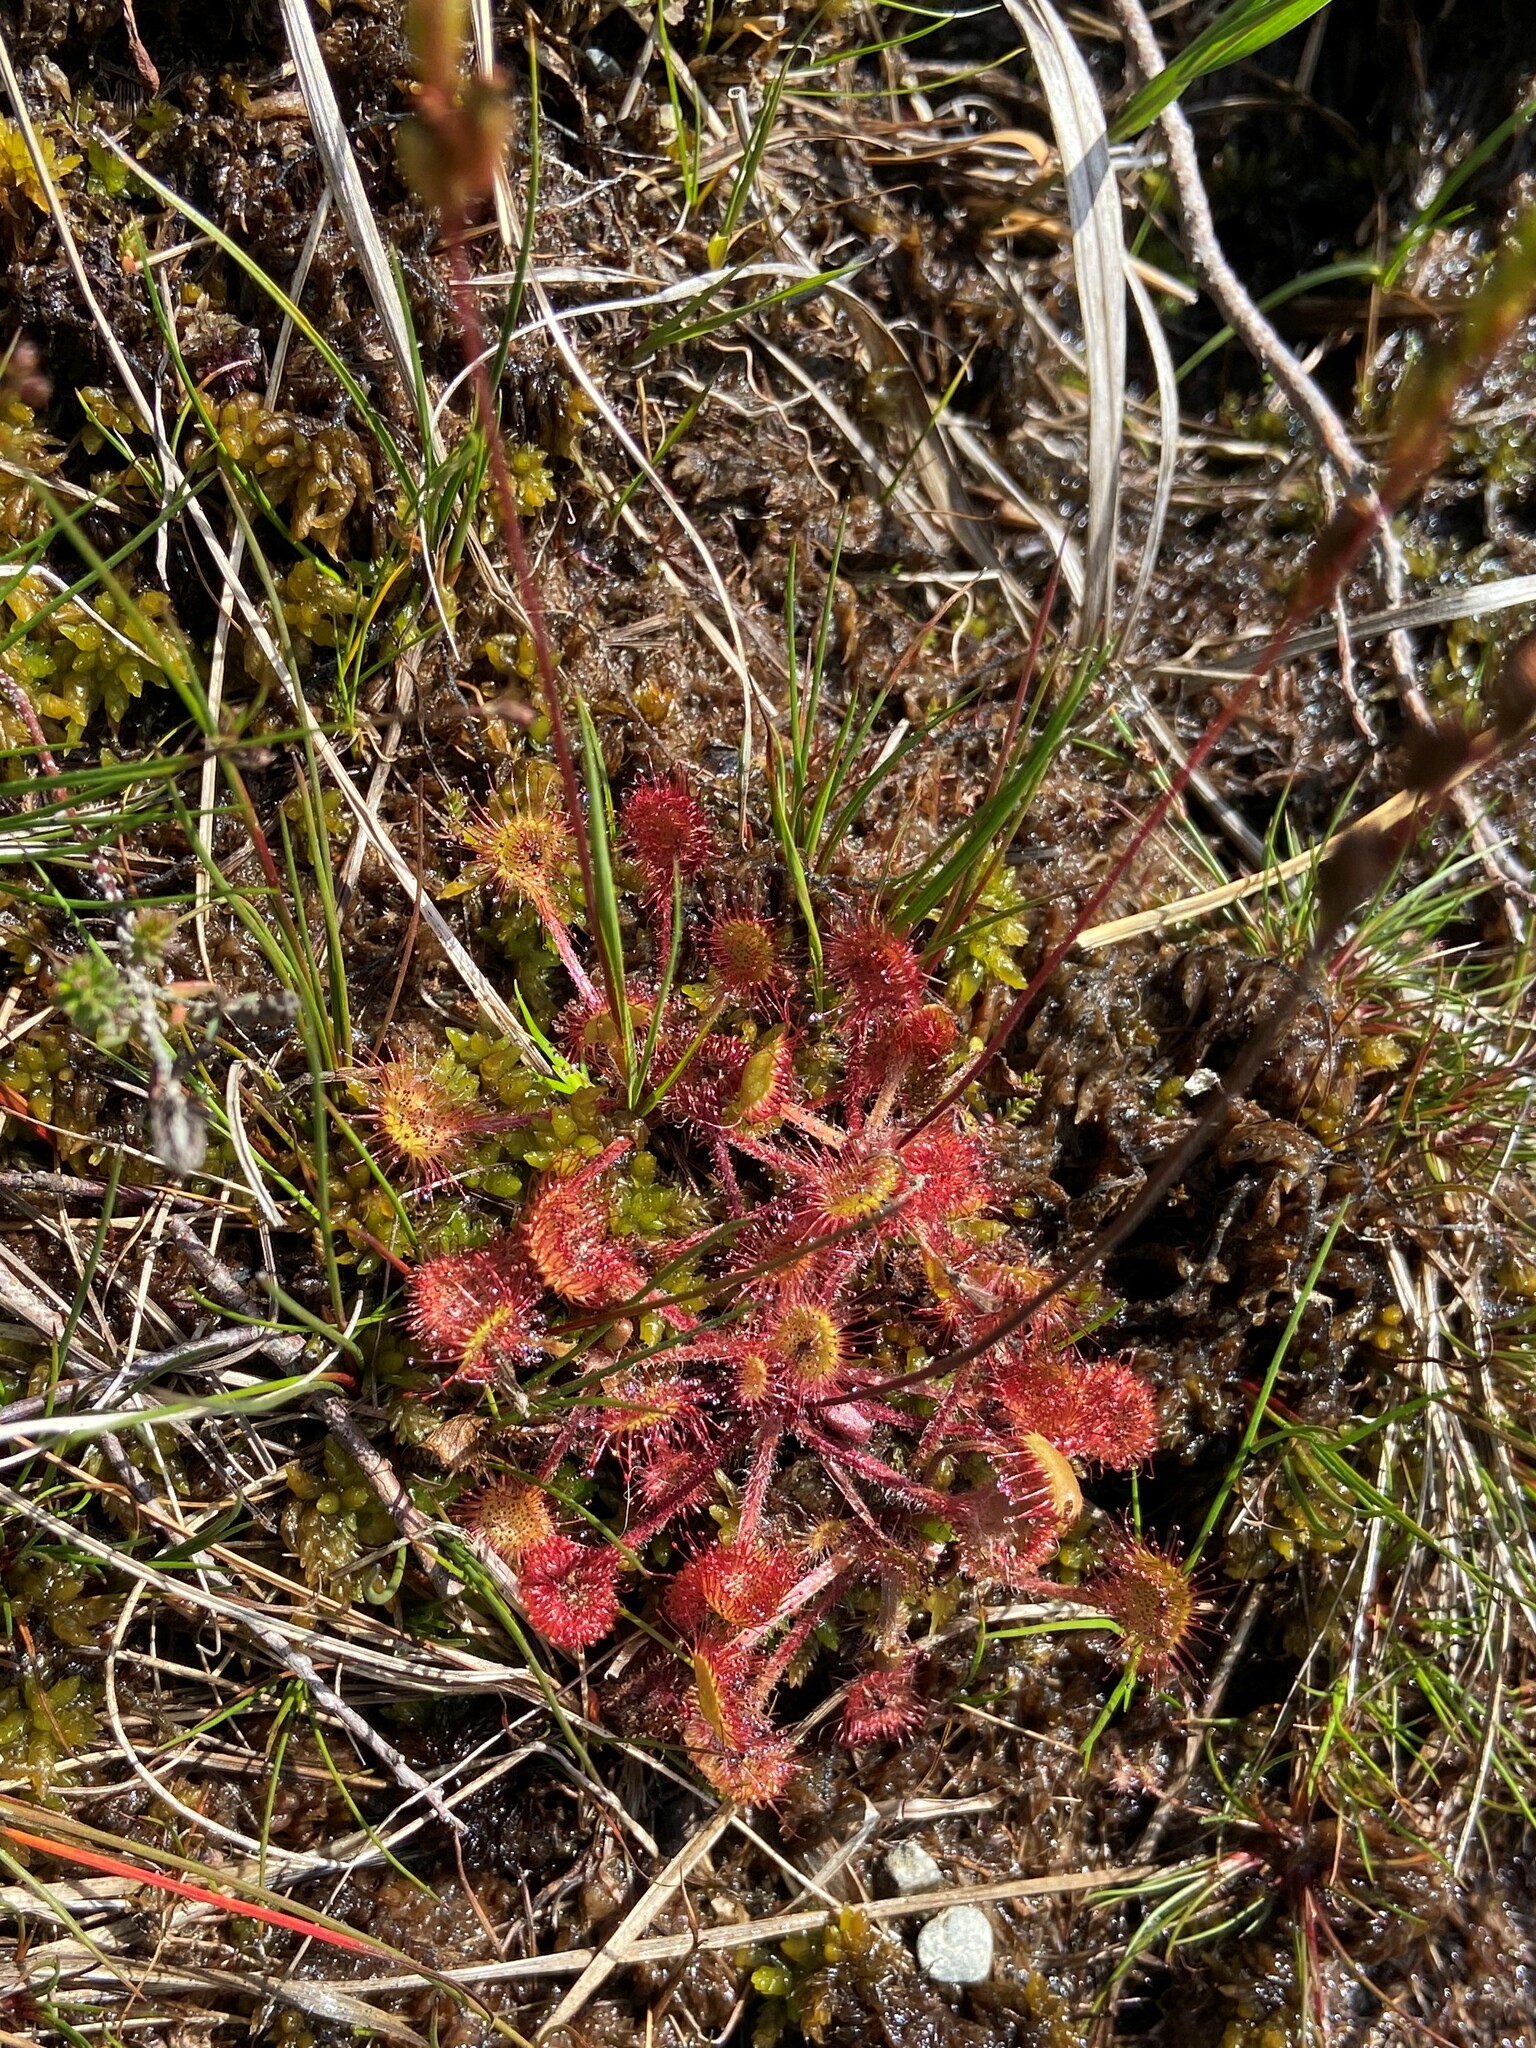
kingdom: Plantae
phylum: Tracheophyta
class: Magnoliopsida
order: Caryophyllales
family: Droseraceae
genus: Drosera
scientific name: Drosera rotundifolia
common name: Round-leaved sundew
